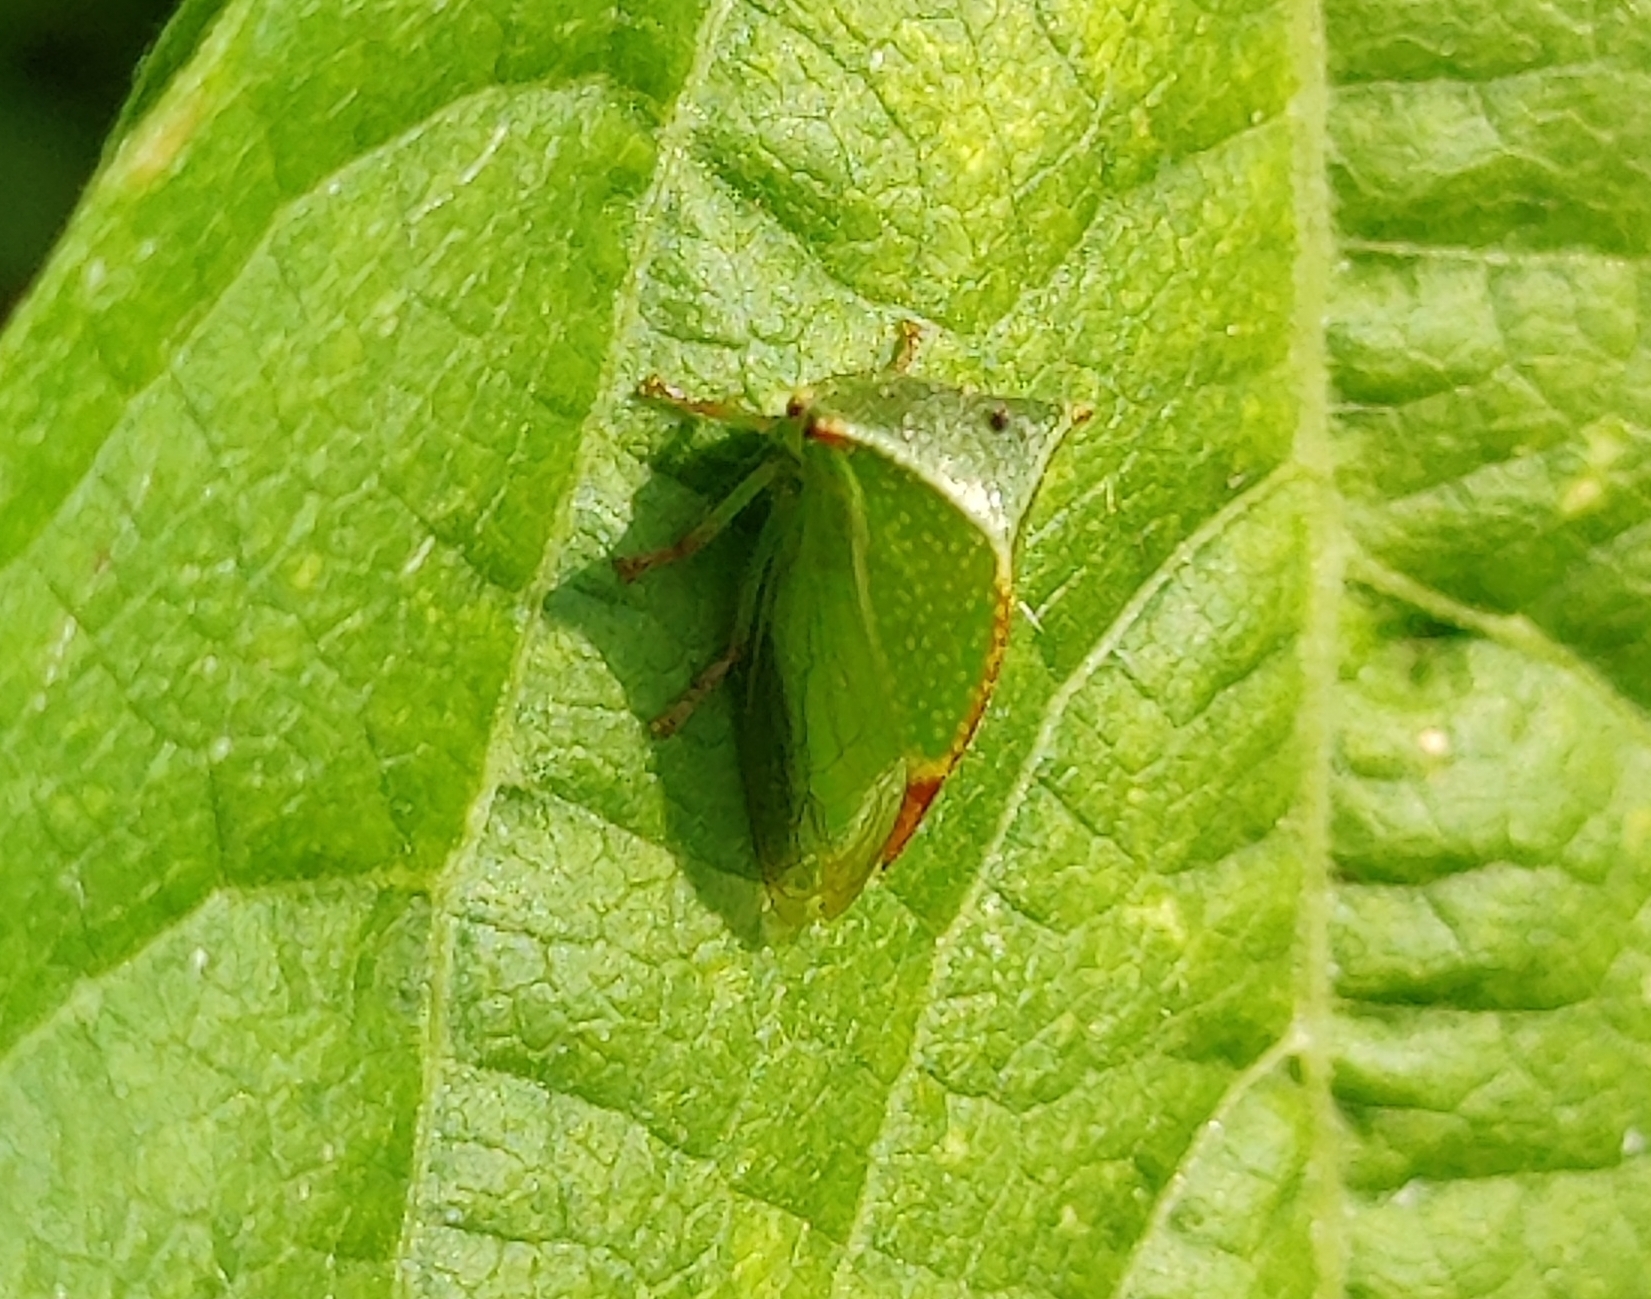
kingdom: Animalia
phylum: Arthropoda
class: Insecta
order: Hemiptera
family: Membracidae
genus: Stictocephala
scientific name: Stictocephala bisonia
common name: American buffalo treehopper
